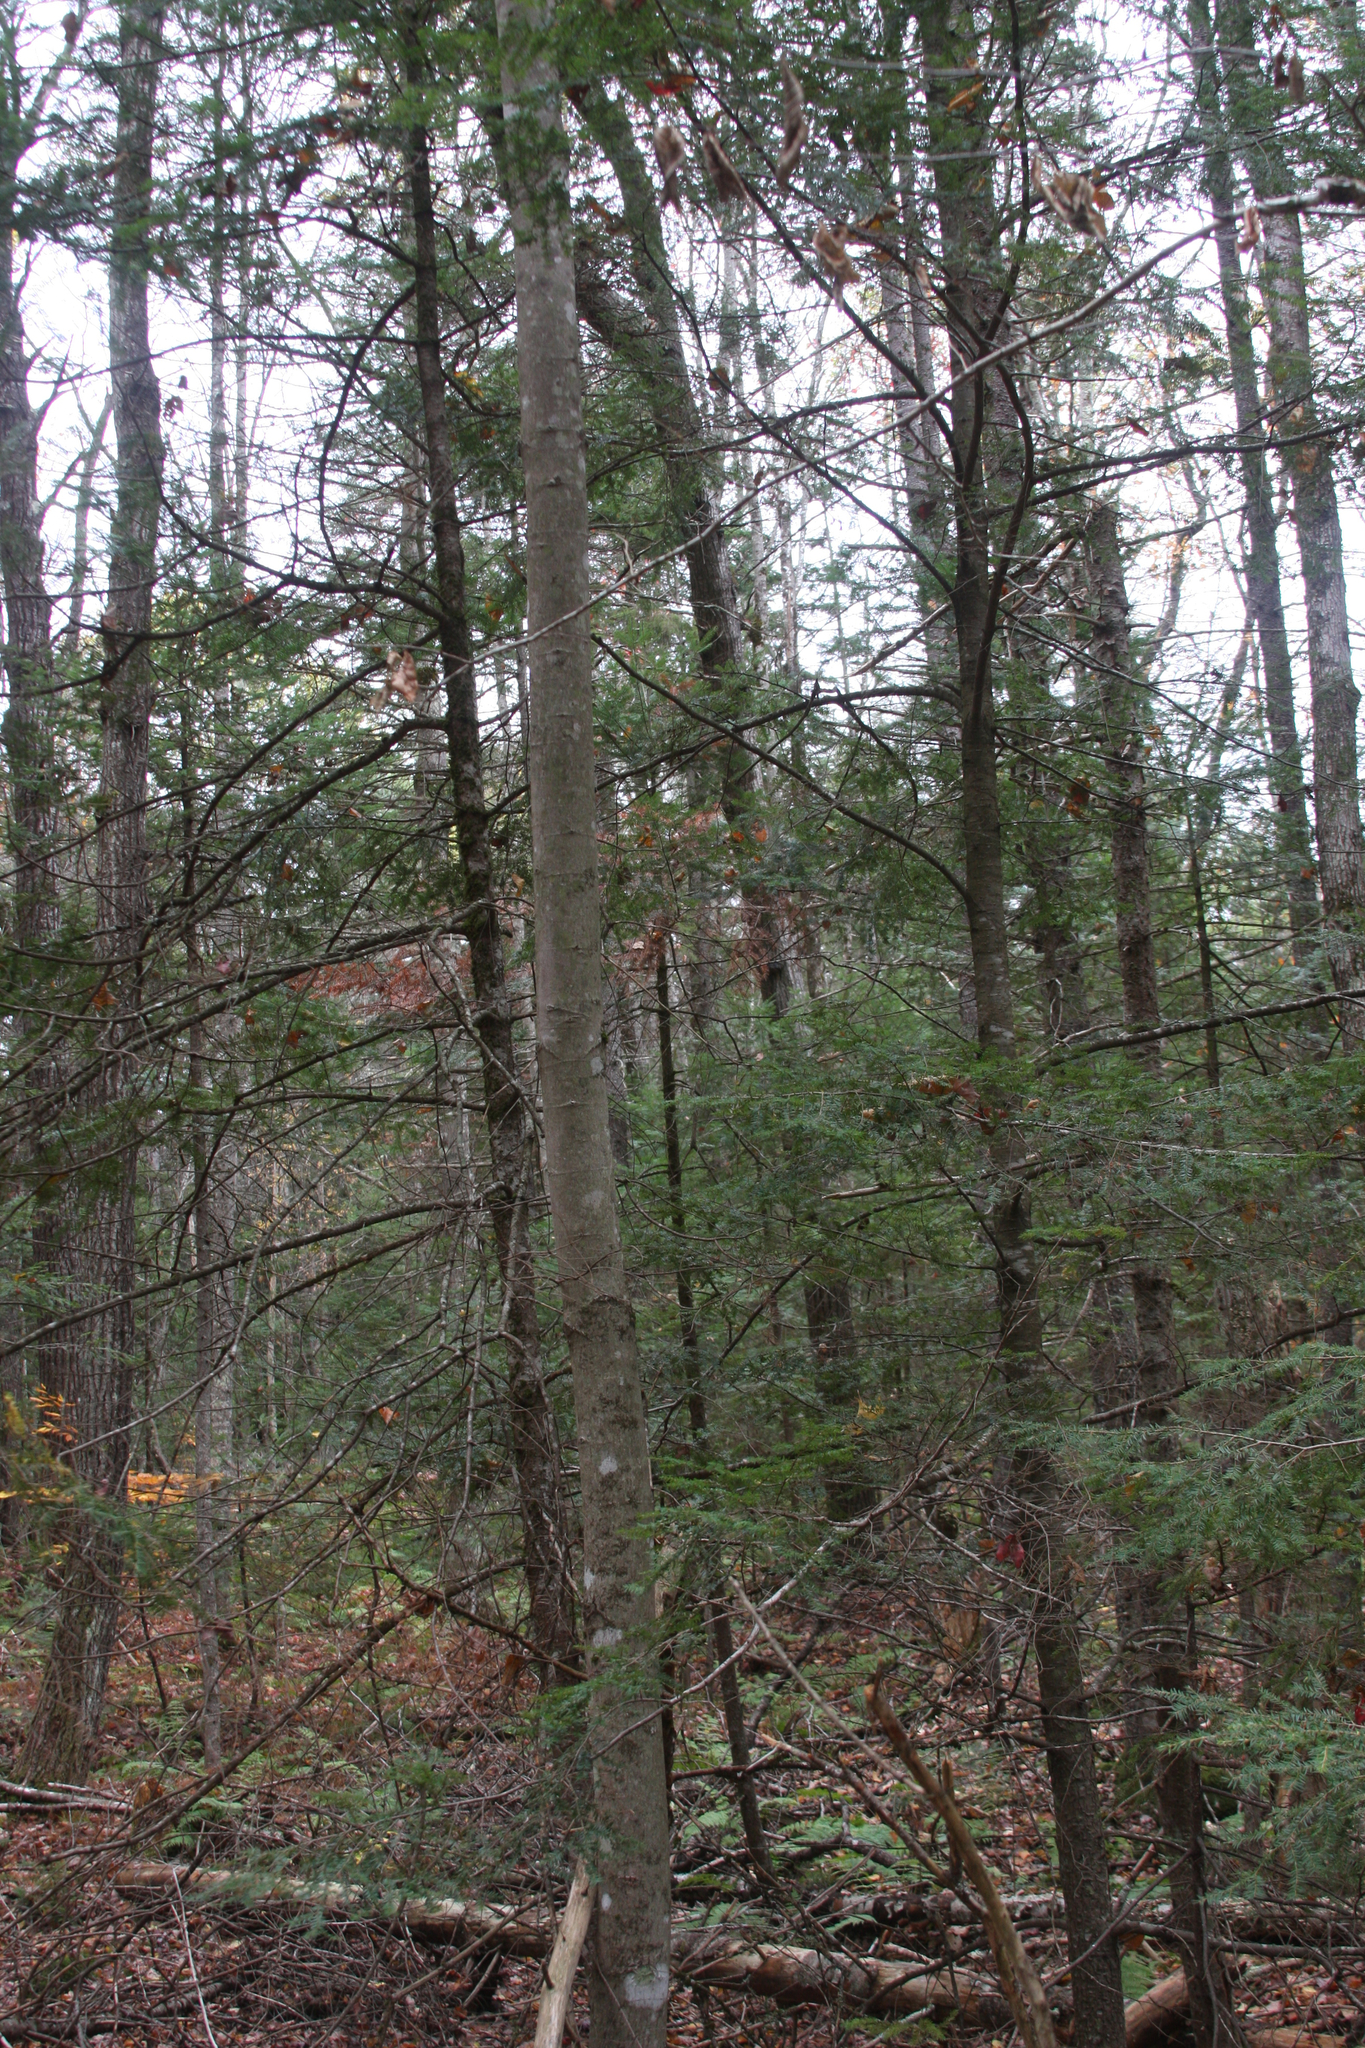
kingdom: Plantae
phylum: Tracheophyta
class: Magnoliopsida
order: Sapindales
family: Sapindaceae
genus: Acer
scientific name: Acer rubrum
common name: Red maple
